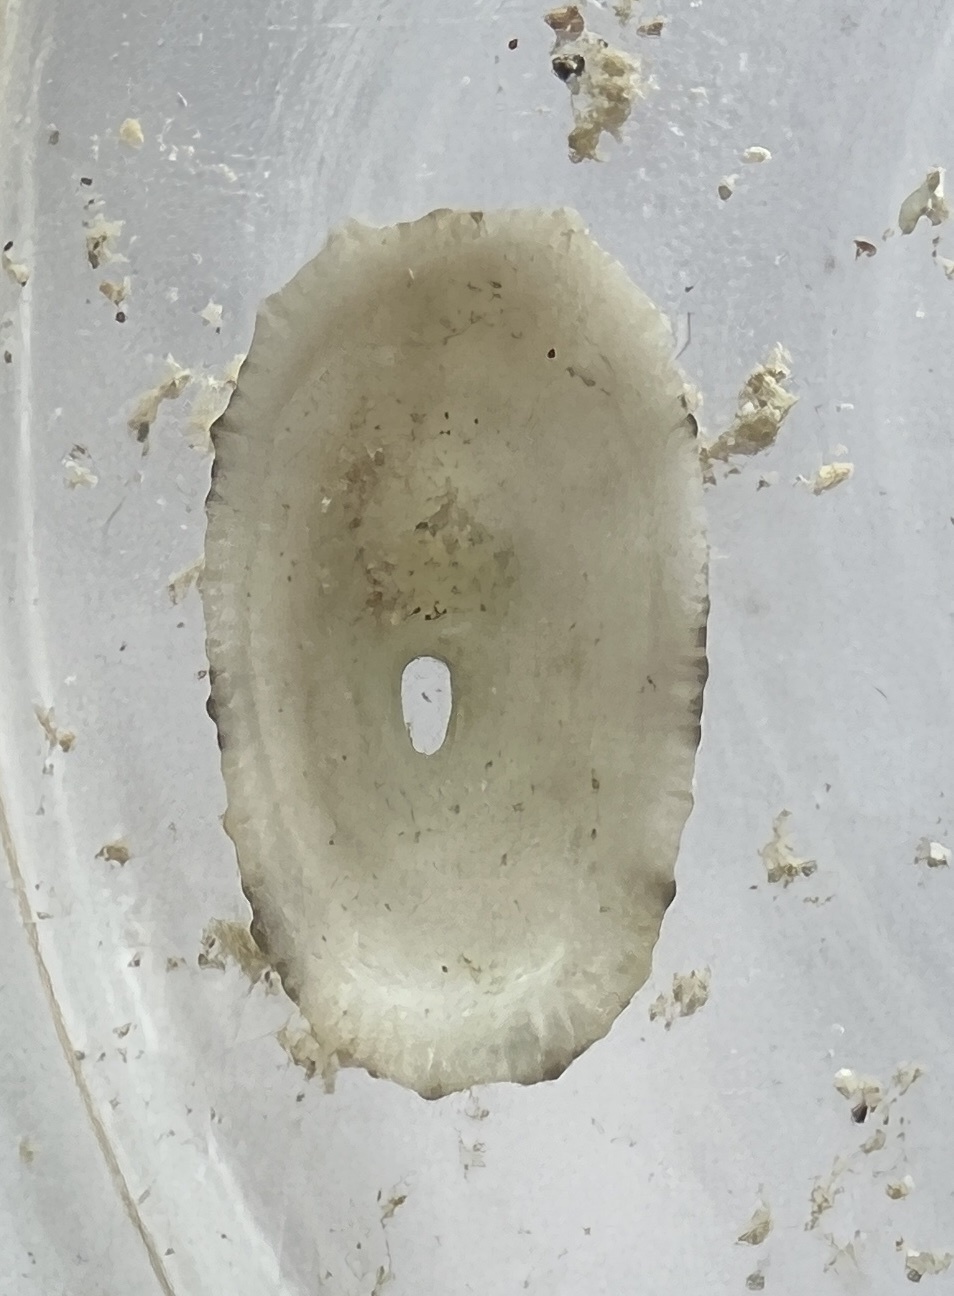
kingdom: Animalia
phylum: Mollusca
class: Gastropoda
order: Lepetellida
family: Fissurellidae
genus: Diodora
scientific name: Diodora cayenensis
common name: Cayenne keyhole limpet
